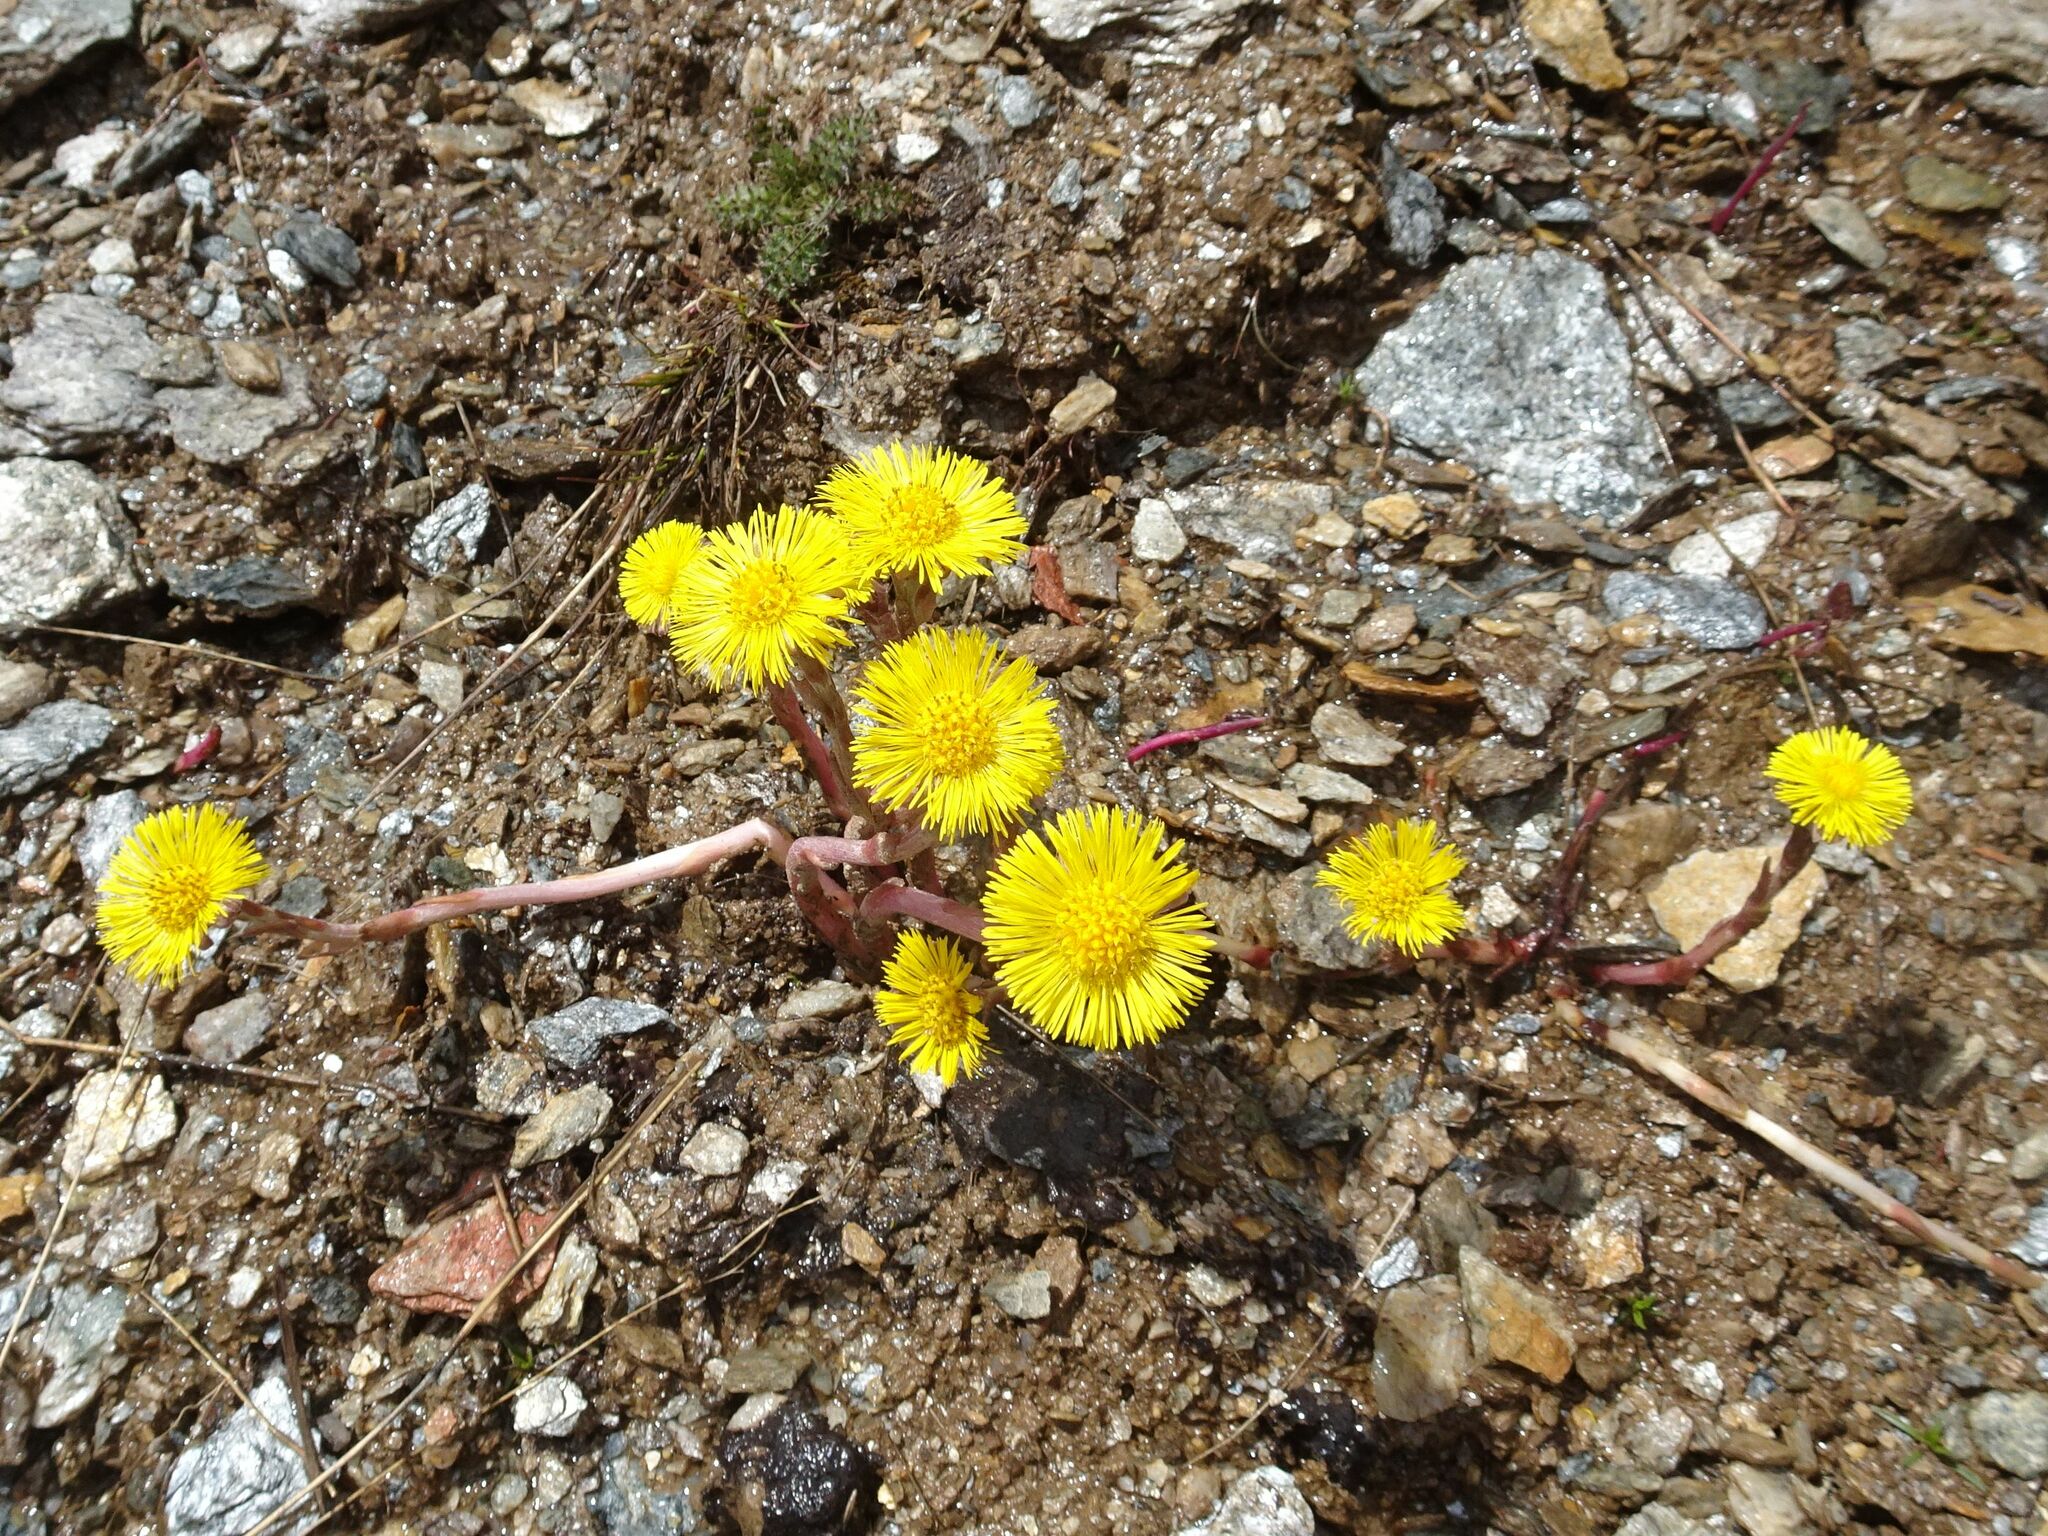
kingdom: Plantae
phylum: Tracheophyta
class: Magnoliopsida
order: Asterales
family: Asteraceae
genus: Tussilago
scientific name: Tussilago farfara
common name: Coltsfoot
